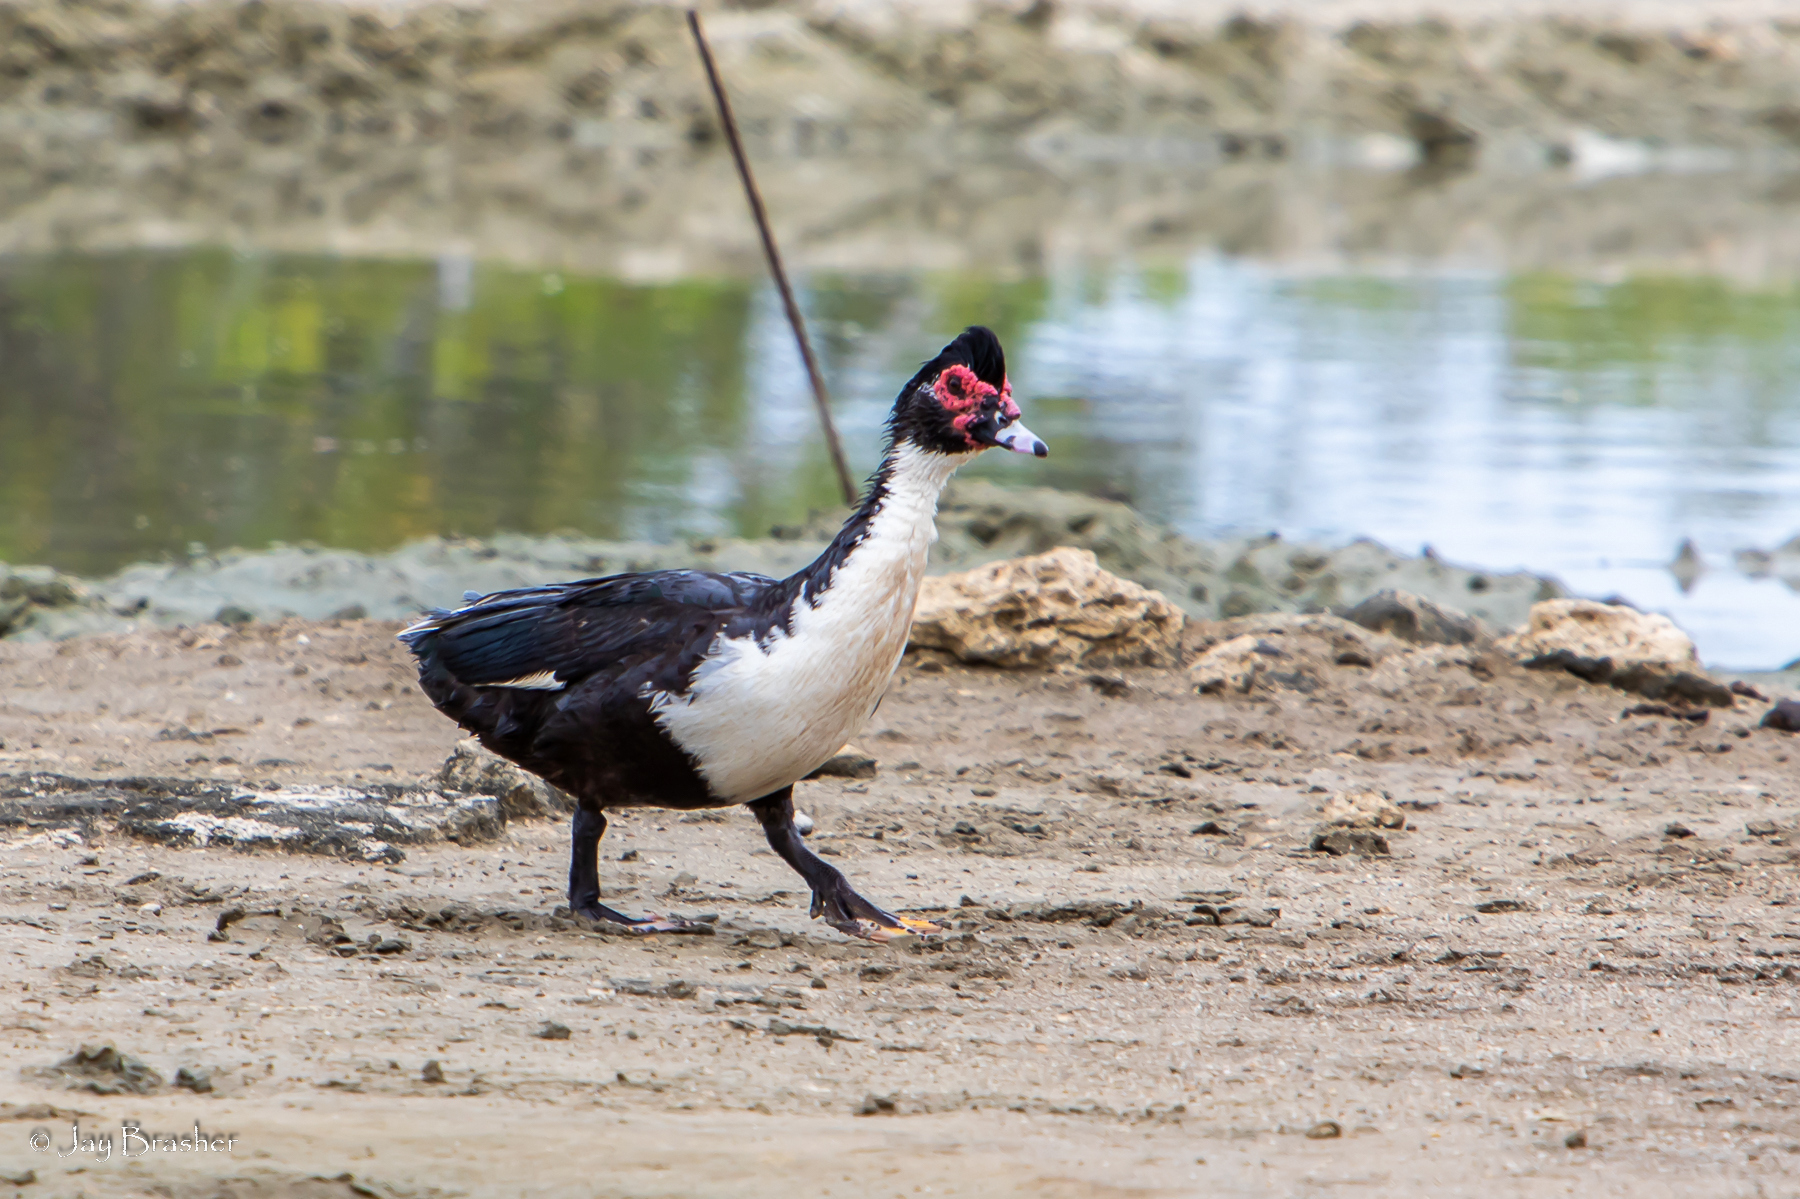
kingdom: Animalia
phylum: Chordata
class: Aves
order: Anseriformes
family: Anatidae
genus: Cairina
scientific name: Cairina moschata
